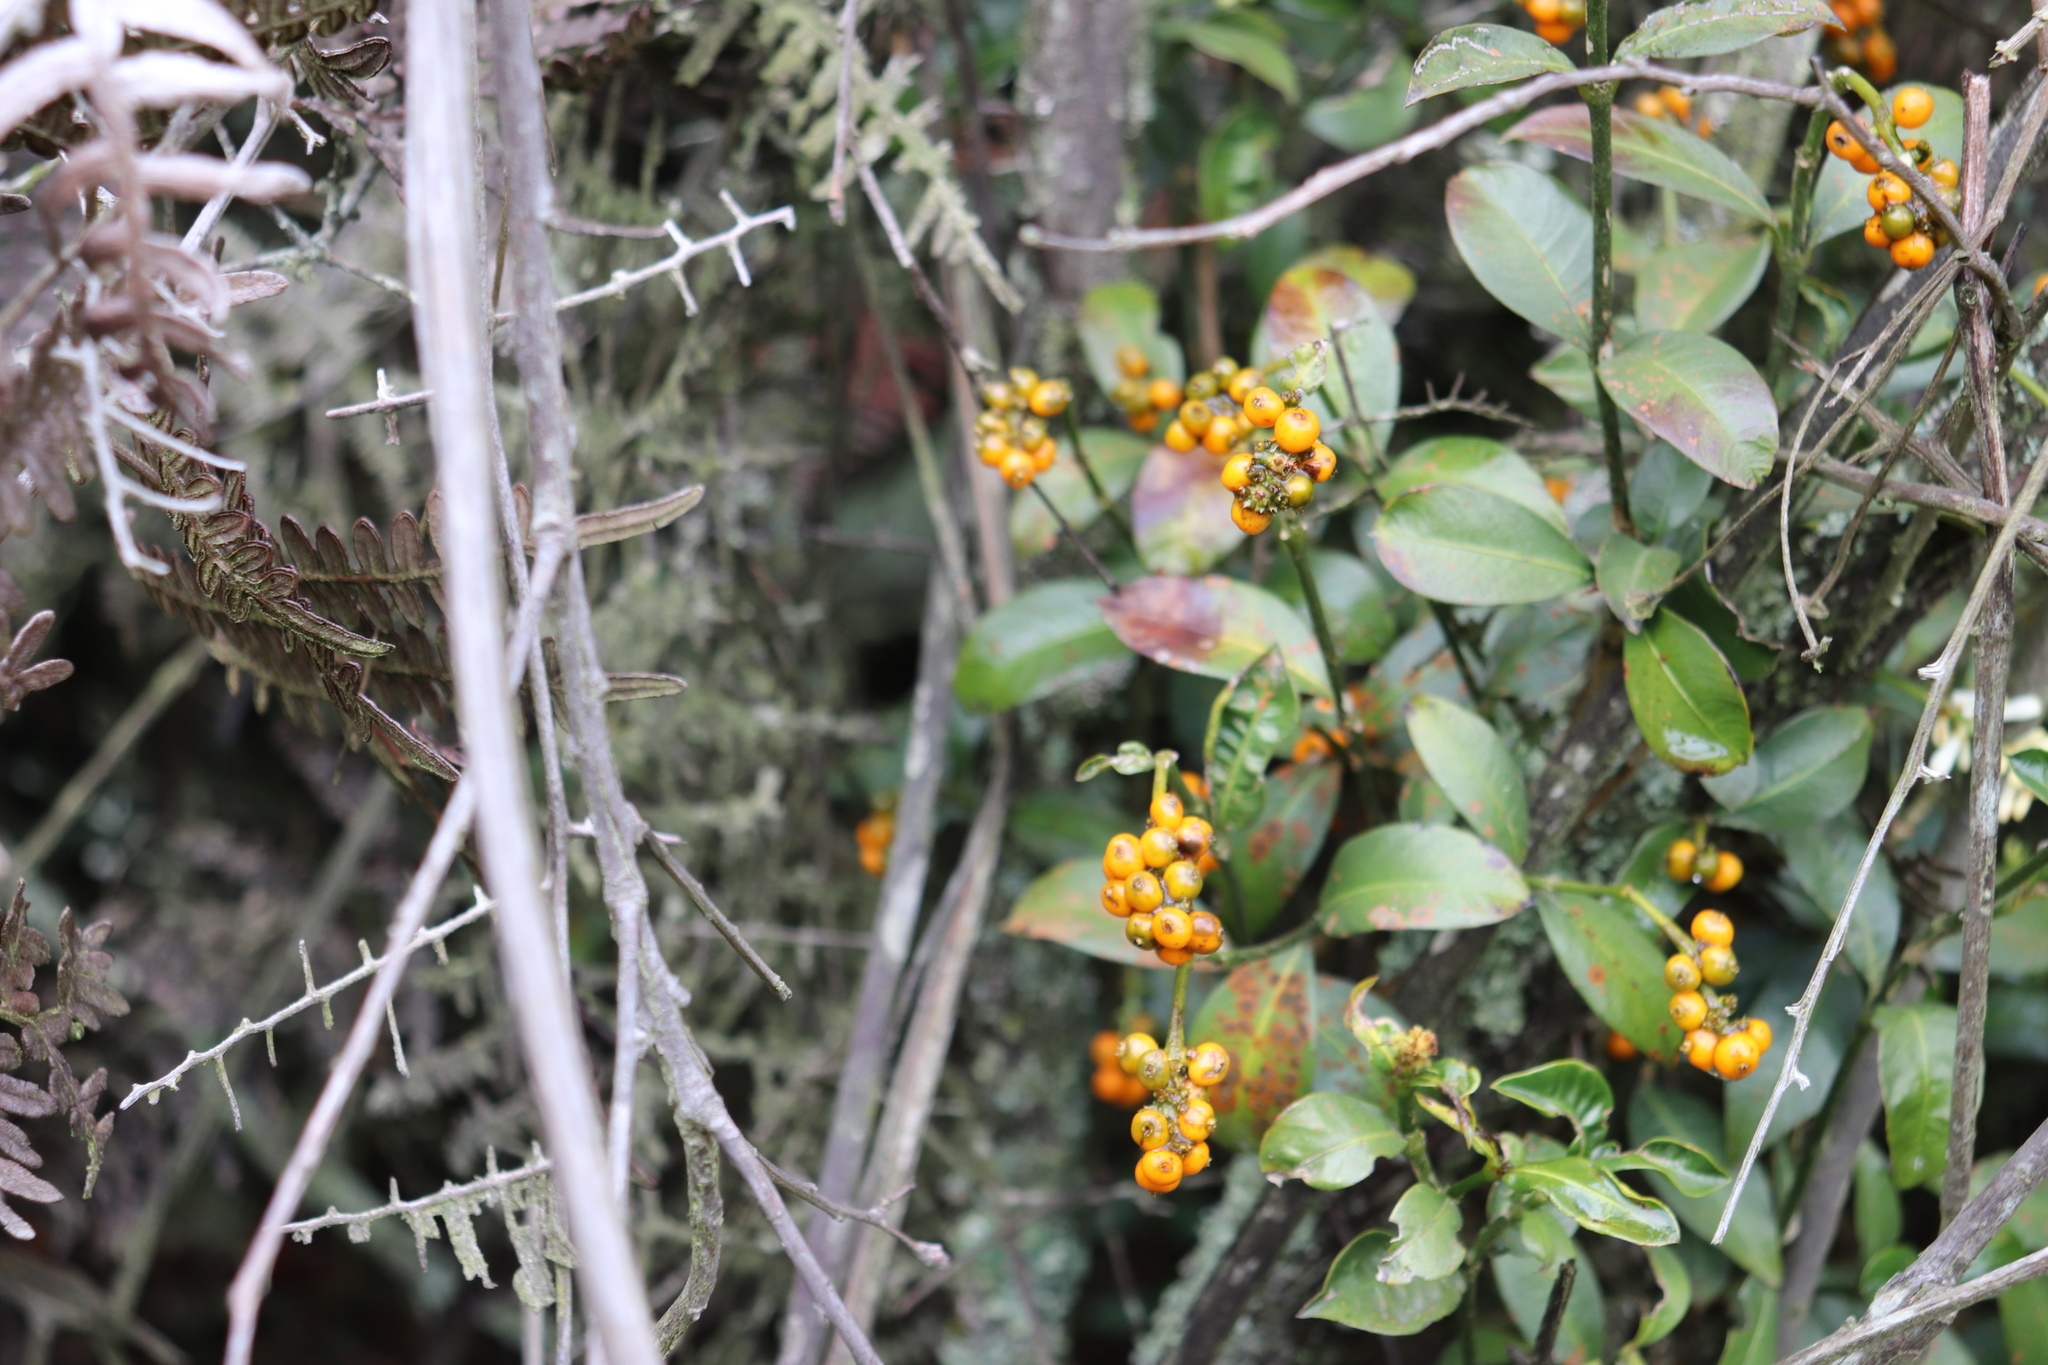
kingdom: Plantae
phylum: Tracheophyta
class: Magnoliopsida
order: Gentianales
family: Rubiaceae
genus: Palicourea
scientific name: Palicourea boqueronensis
